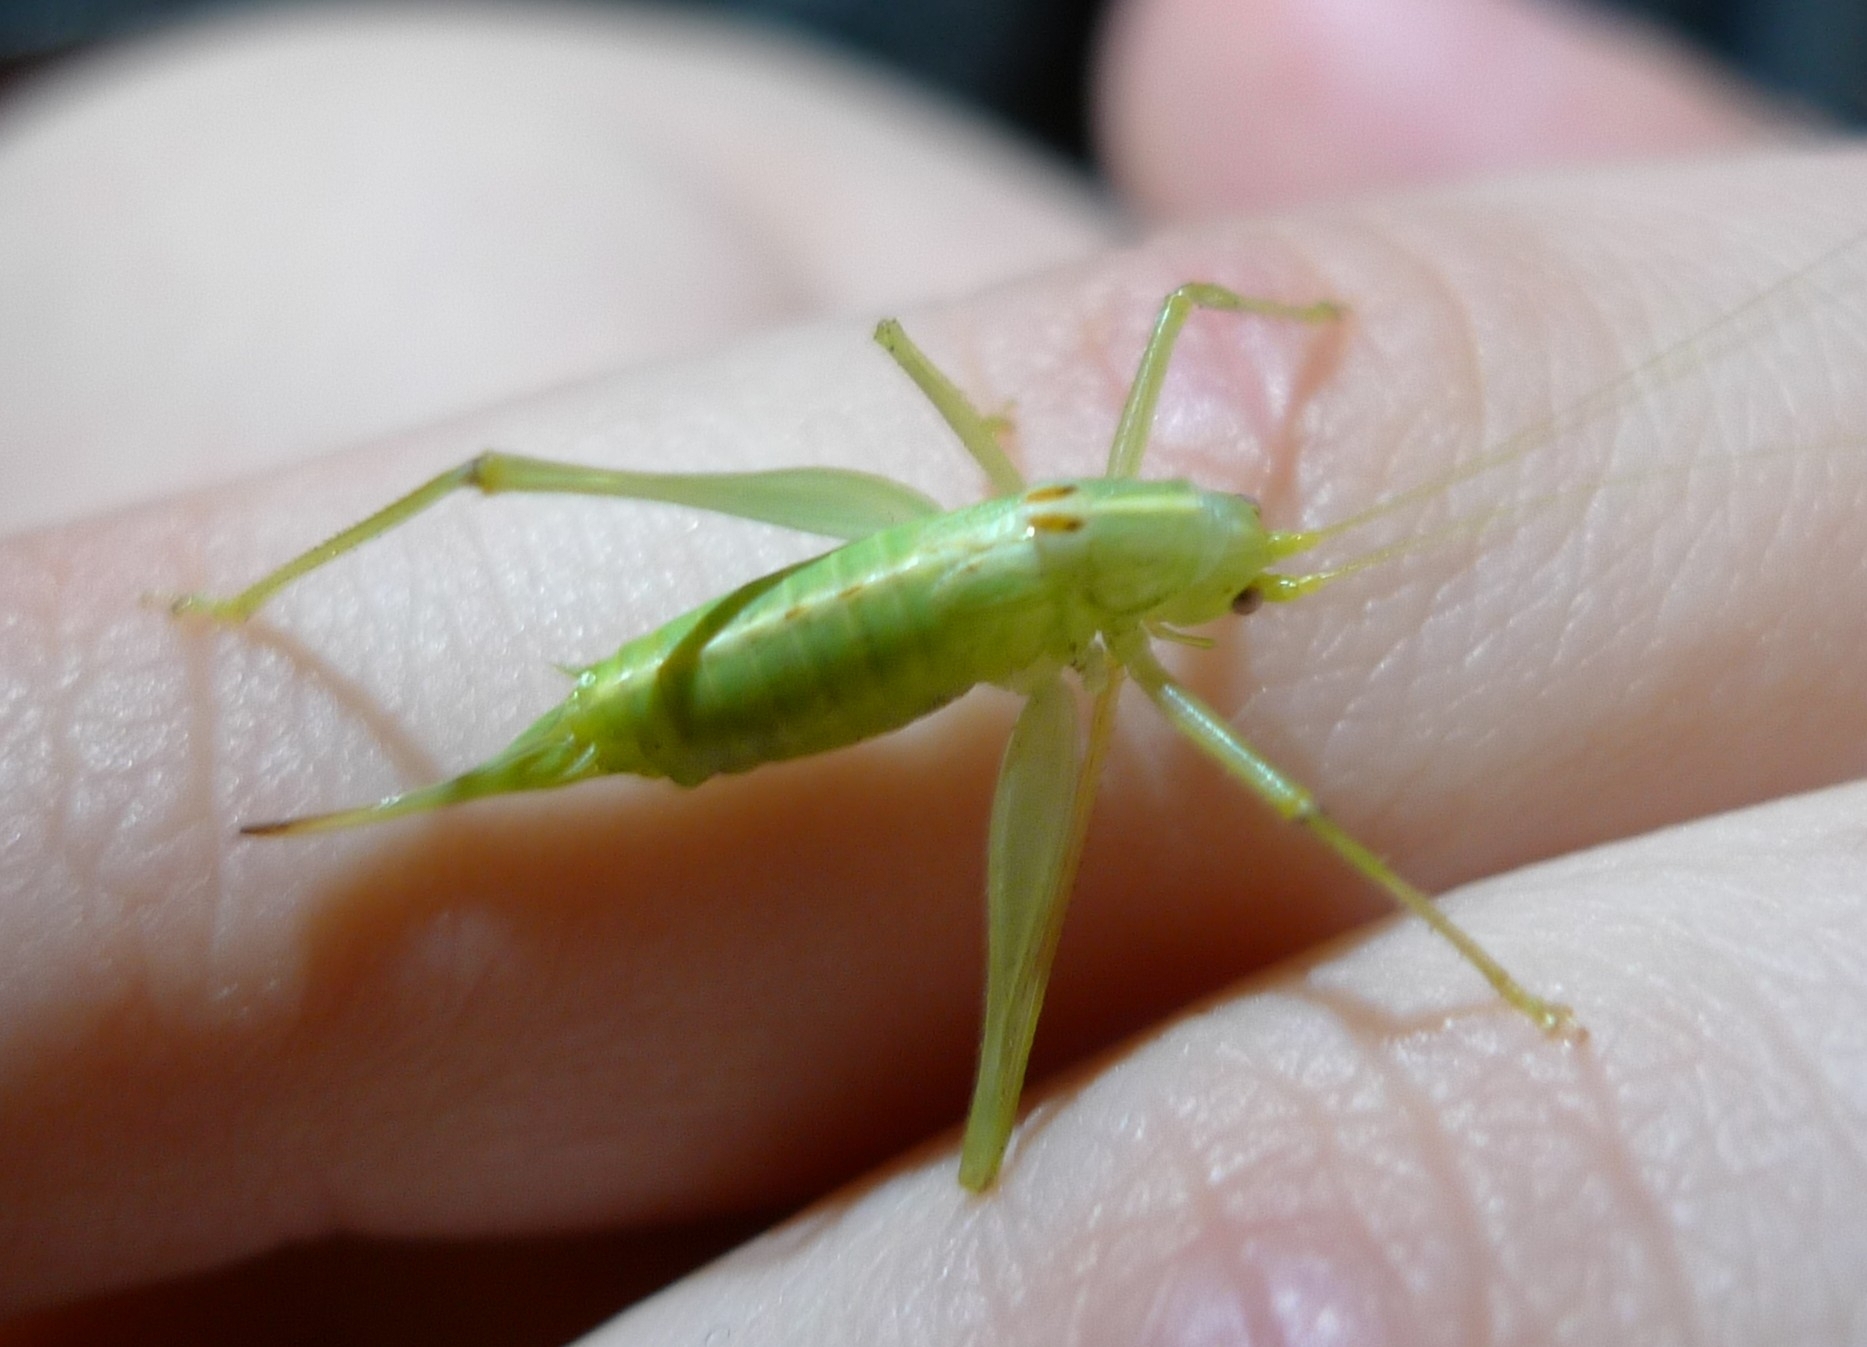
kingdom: Animalia
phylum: Arthropoda
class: Insecta
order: Orthoptera
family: Tettigoniidae
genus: Meconema
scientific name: Meconema meridionale
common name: Southern oak bush-cricket
